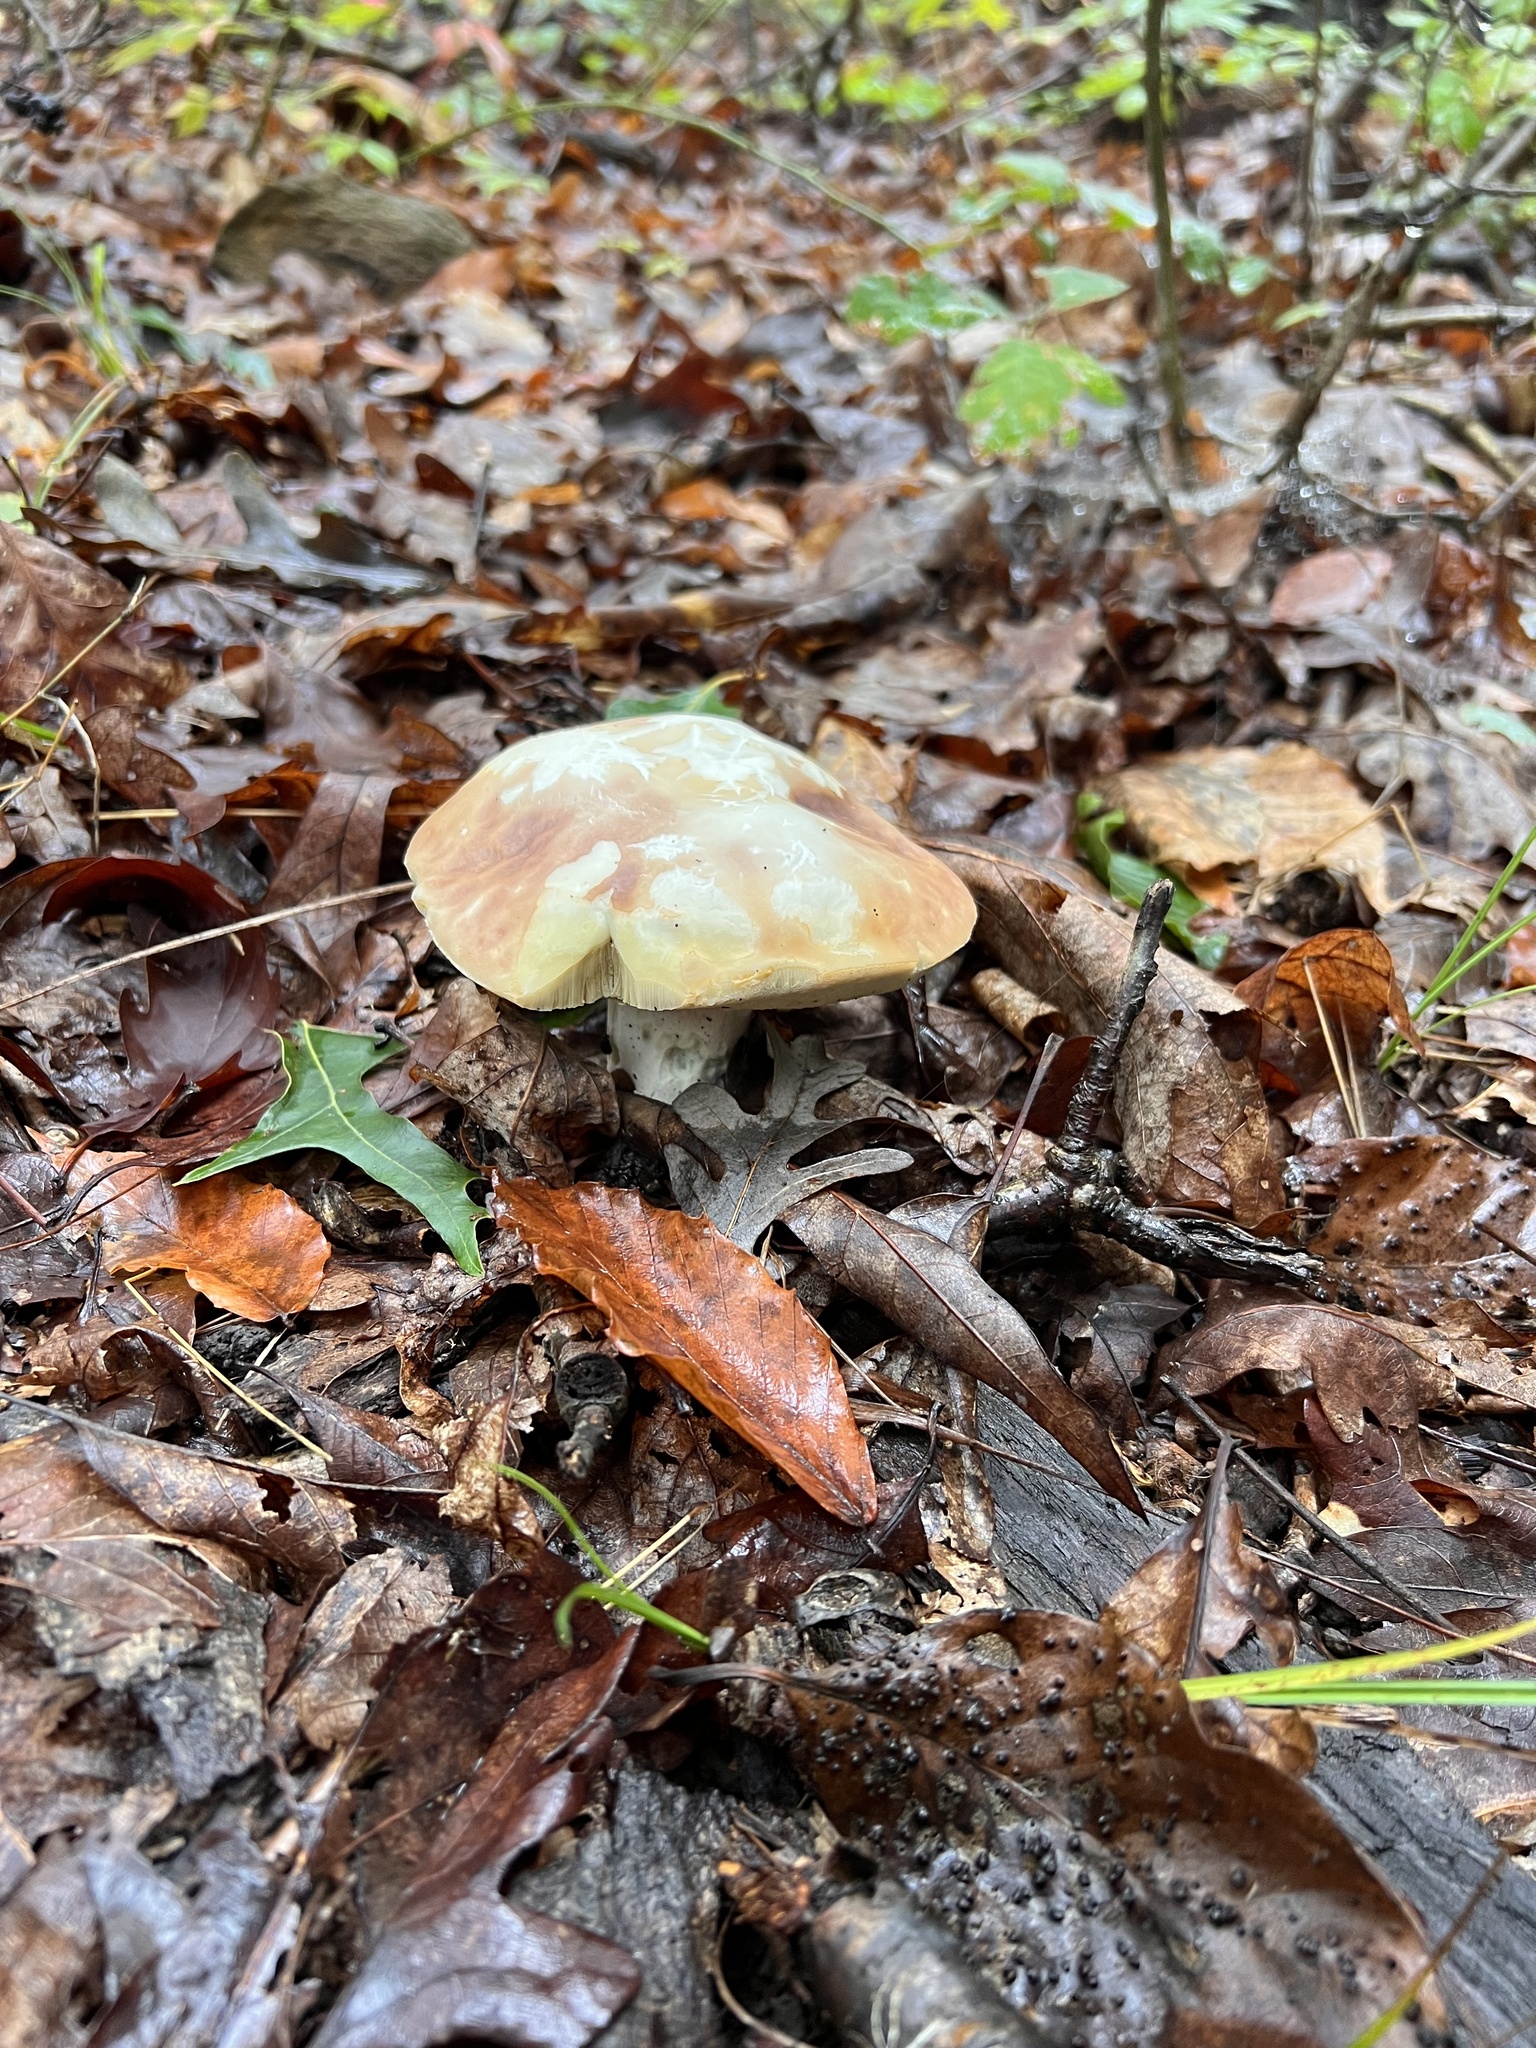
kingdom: Fungi
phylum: Basidiomycota
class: Agaricomycetes
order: Boletales
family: Boletaceae
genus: Xanthoconium
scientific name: Xanthoconium separans
